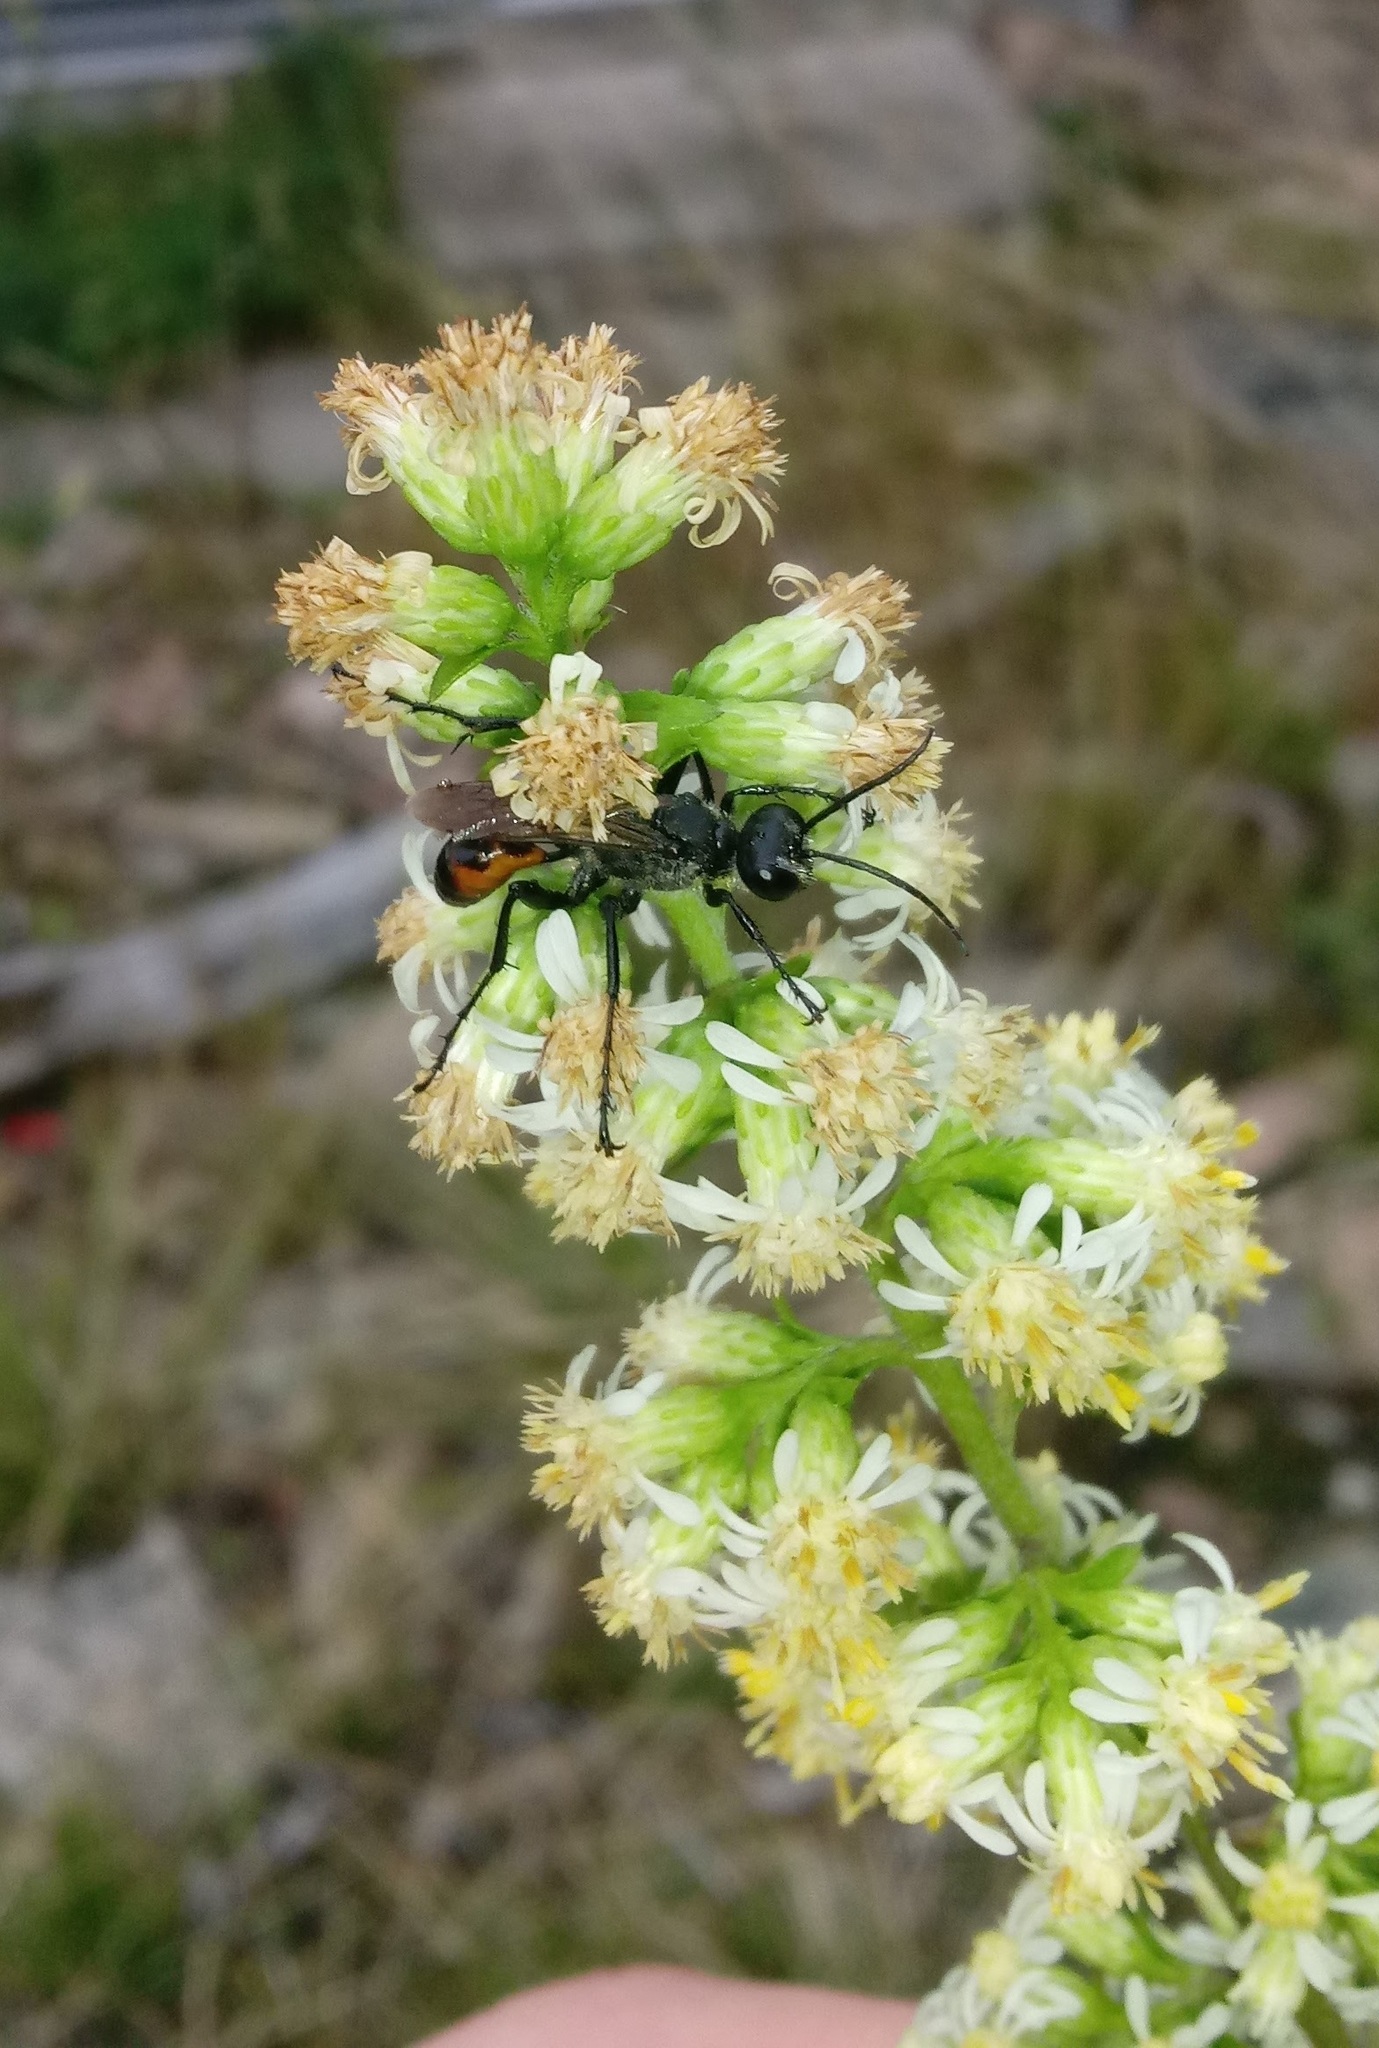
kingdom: Plantae
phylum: Tracheophyta
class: Magnoliopsida
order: Asterales
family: Asteraceae
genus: Solidago
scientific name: Solidago bicolor
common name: Silverrod
